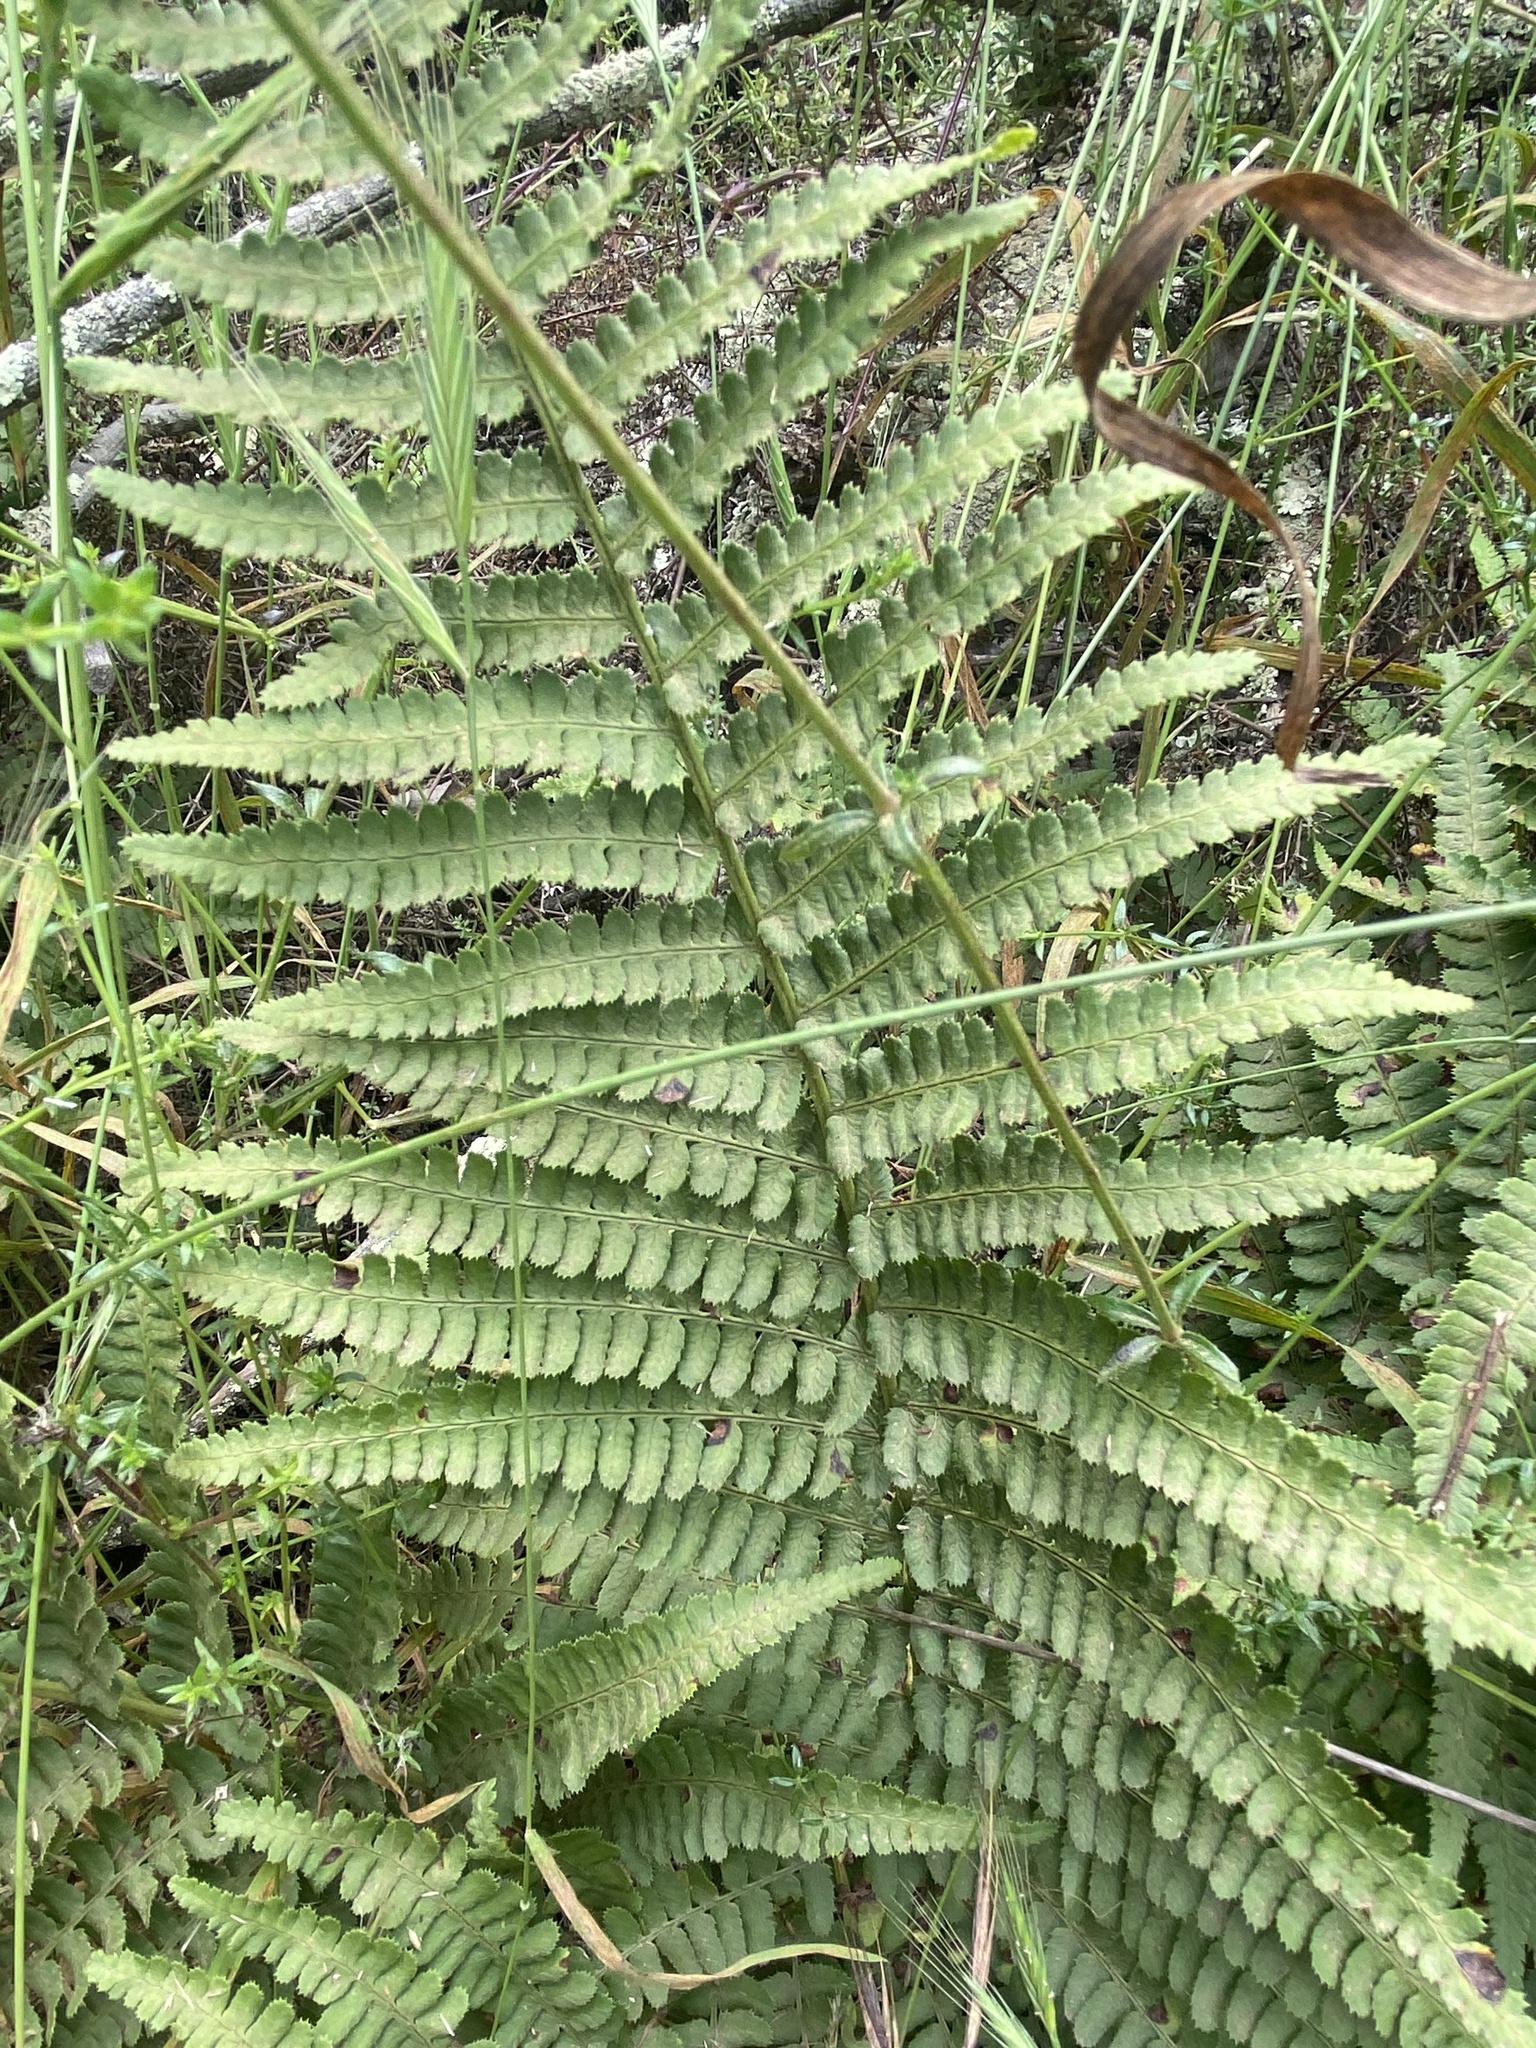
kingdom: Plantae
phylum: Tracheophyta
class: Polypodiopsida
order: Polypodiales
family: Dryopteridaceae
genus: Dryopteris
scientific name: Dryopteris arguta
